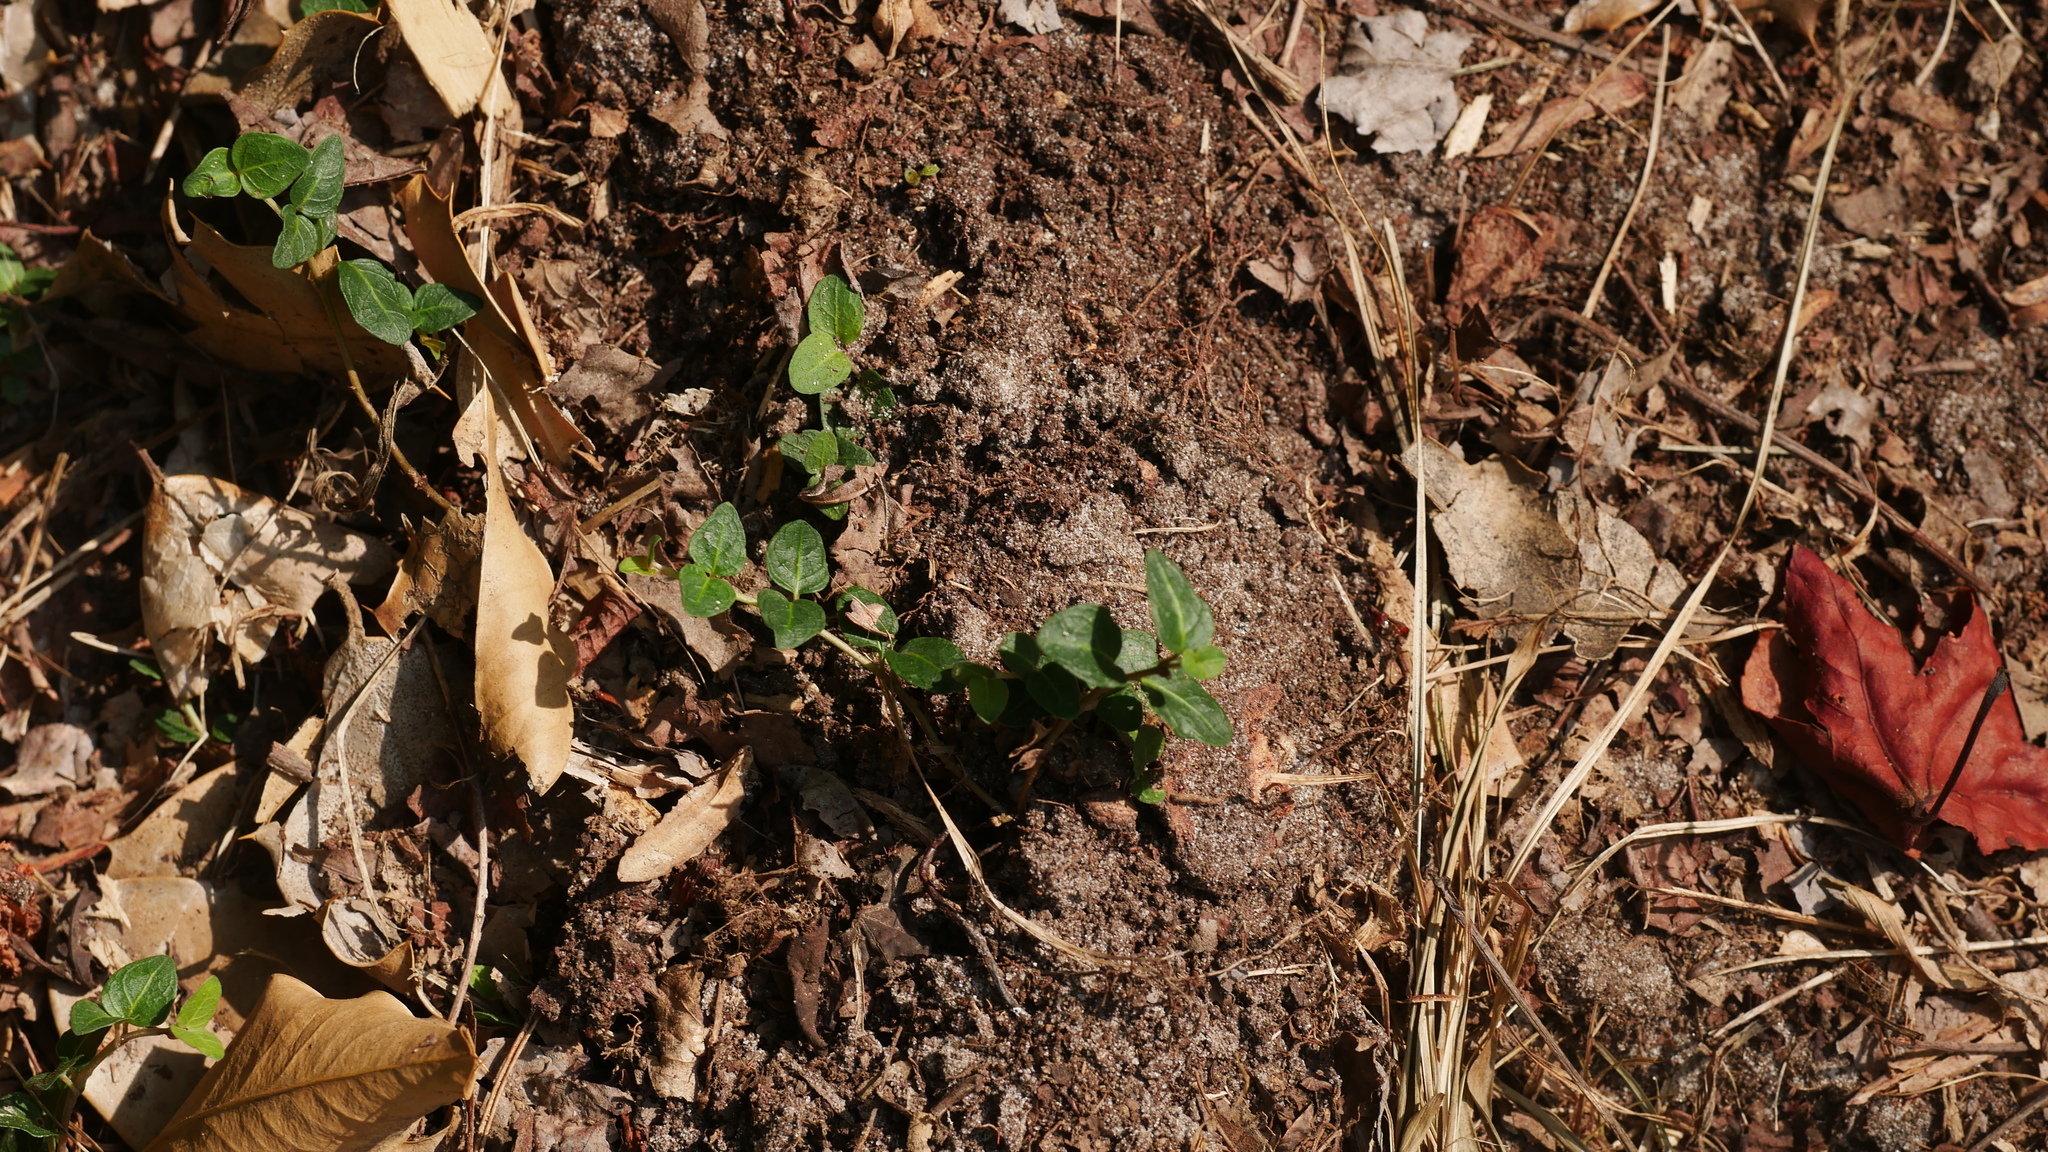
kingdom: Plantae
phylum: Tracheophyta
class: Magnoliopsida
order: Gentianales
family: Rubiaceae
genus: Mitchella
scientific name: Mitchella repens
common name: Partridge-berry
